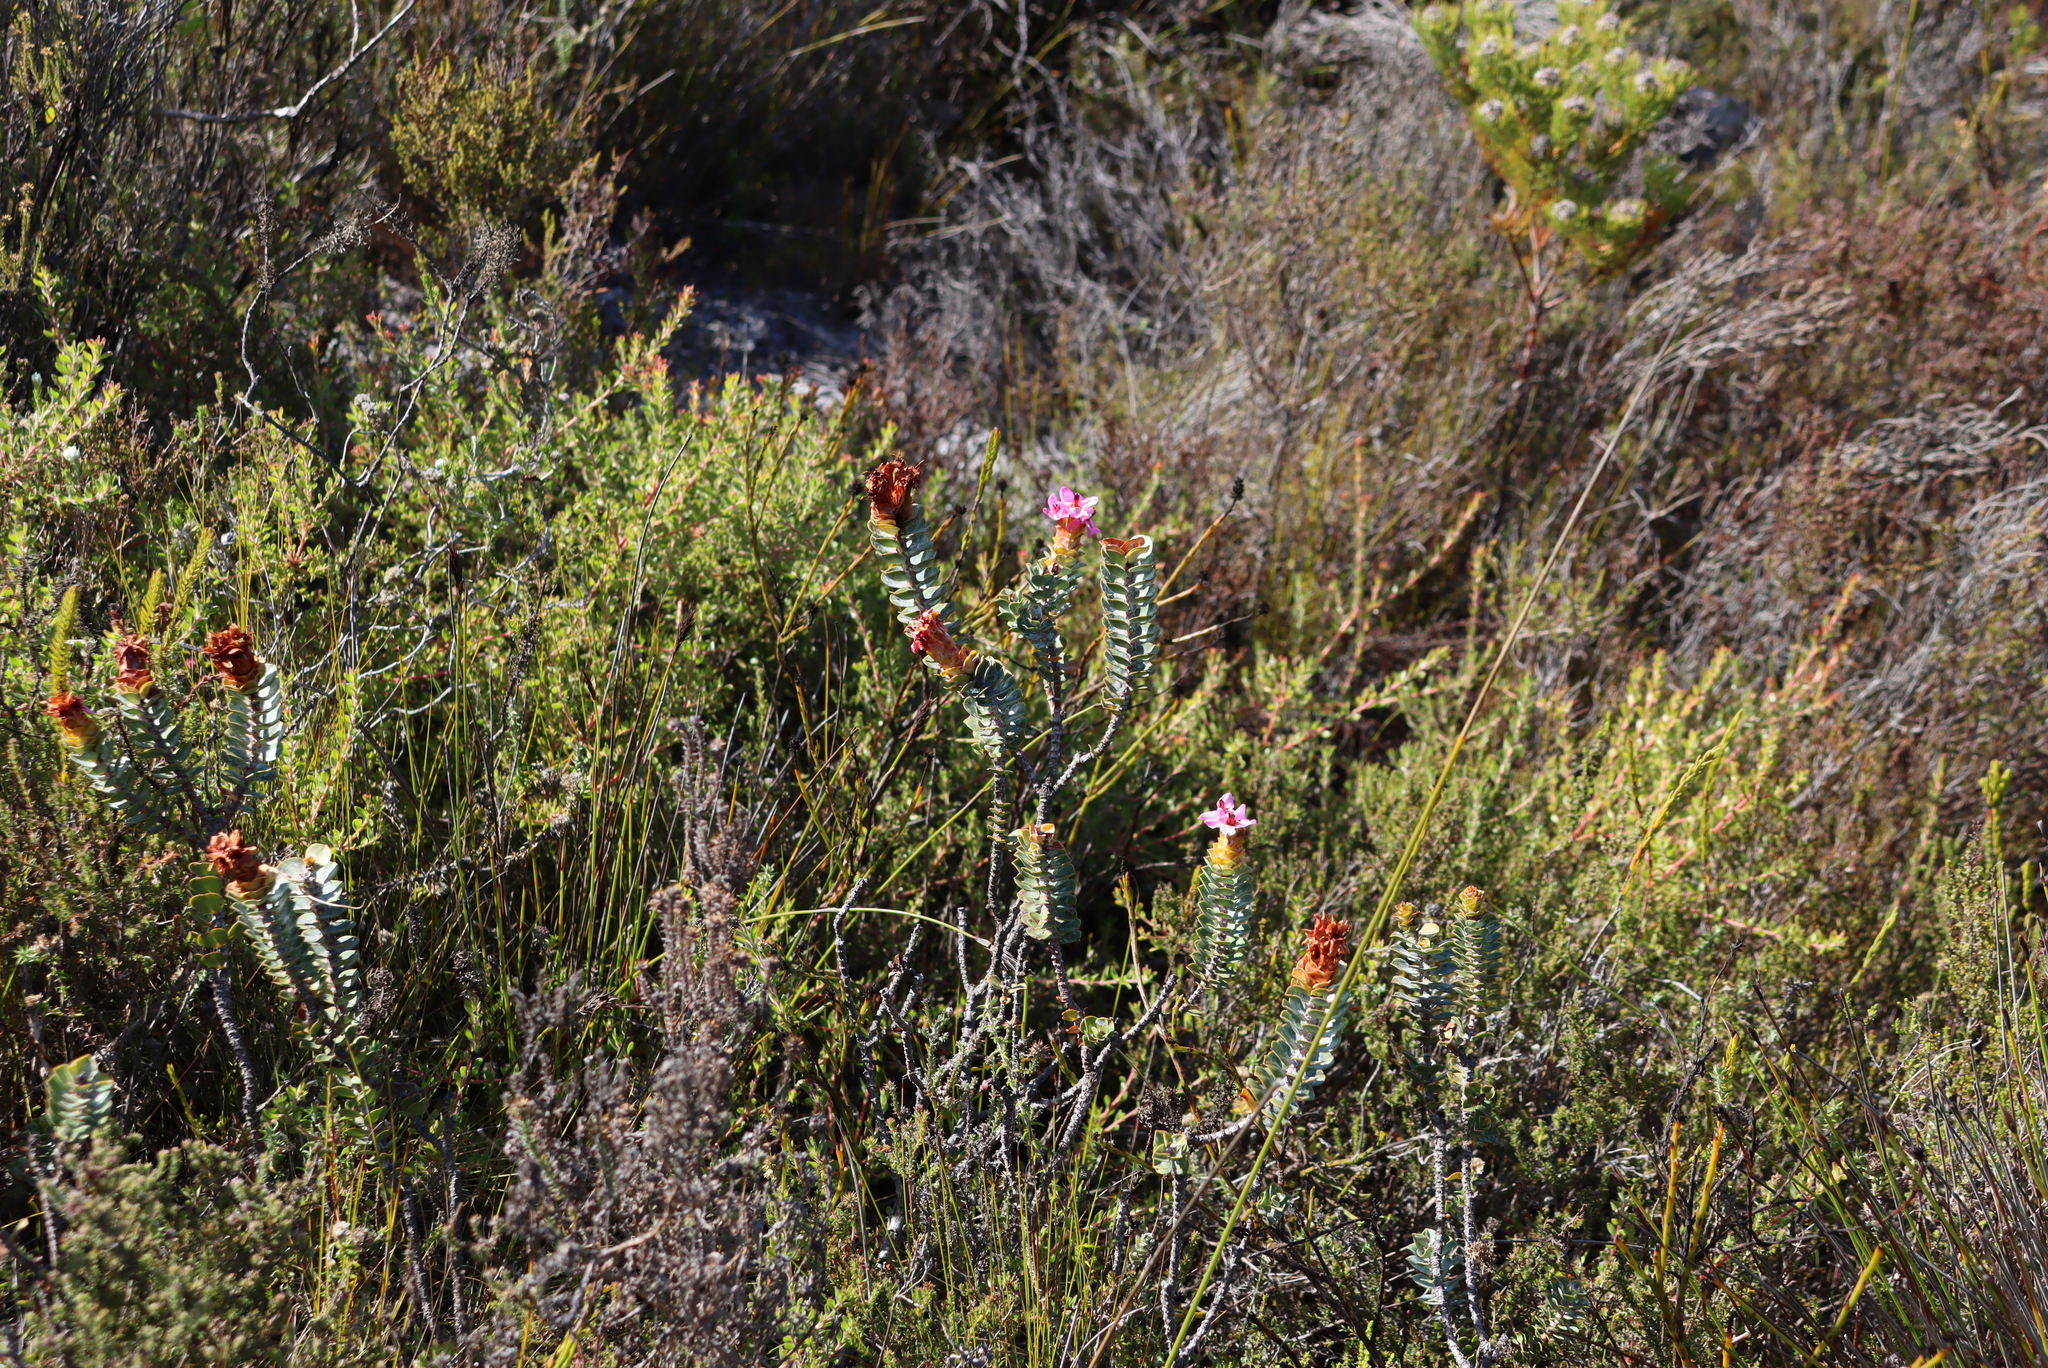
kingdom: Plantae
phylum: Tracheophyta
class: Magnoliopsida
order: Myrtales
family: Penaeaceae
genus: Saltera
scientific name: Saltera sarcocolla
